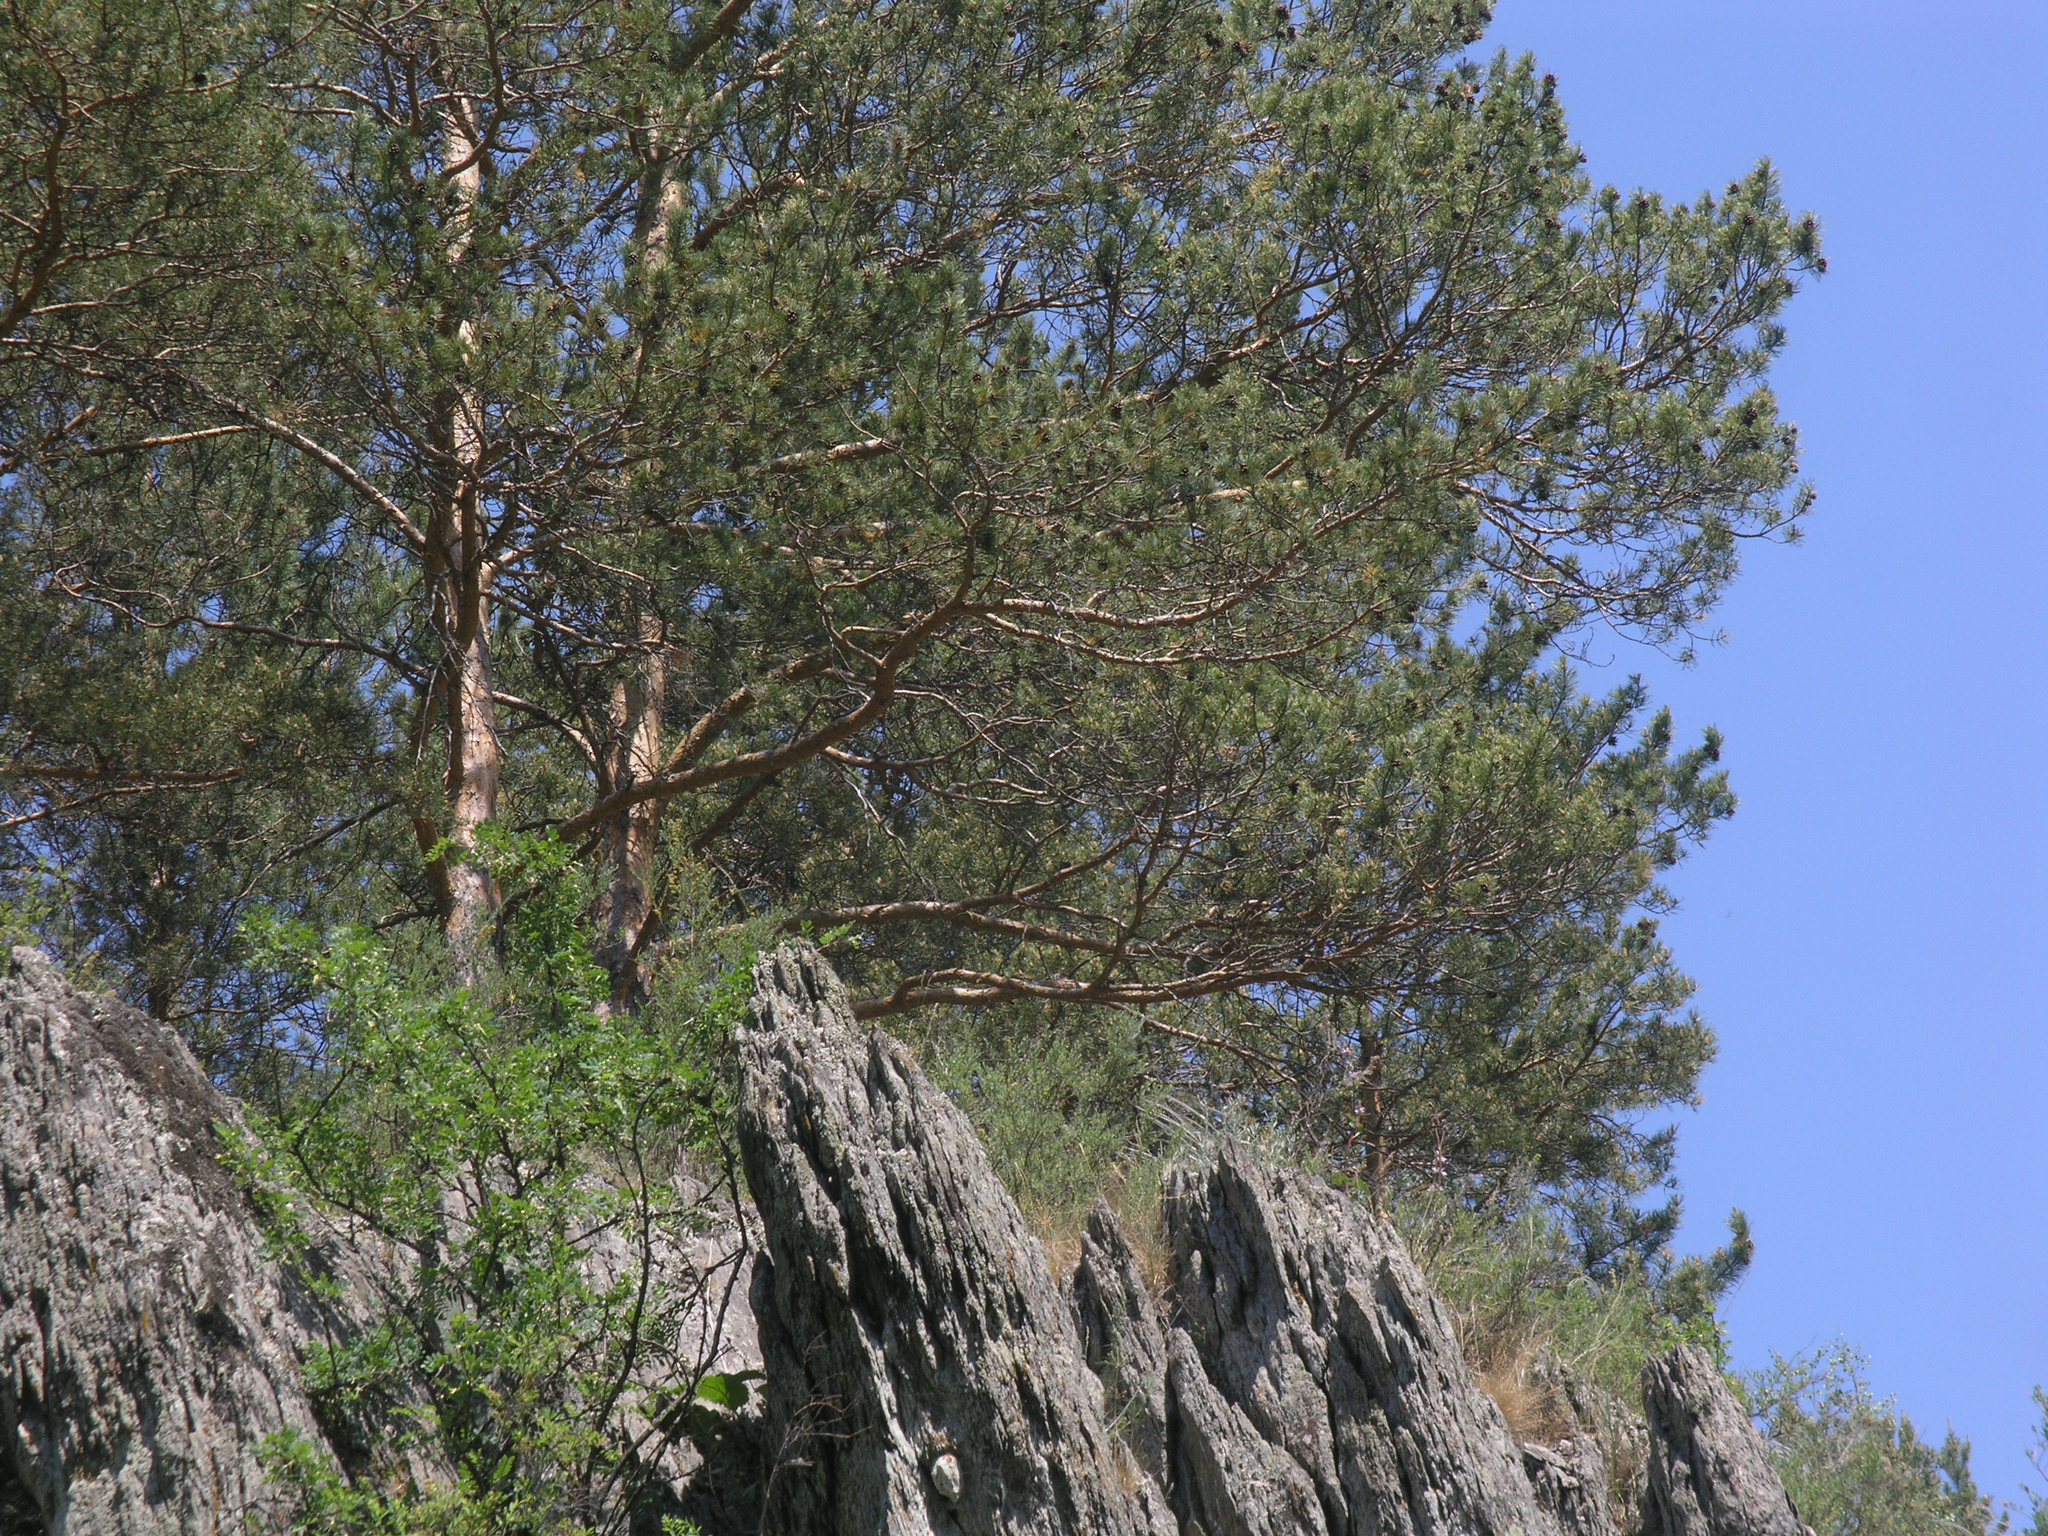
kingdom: Plantae
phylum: Tracheophyta
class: Pinopsida
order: Pinales
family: Pinaceae
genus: Pinus
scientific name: Pinus sylvestris
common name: Scots pine
